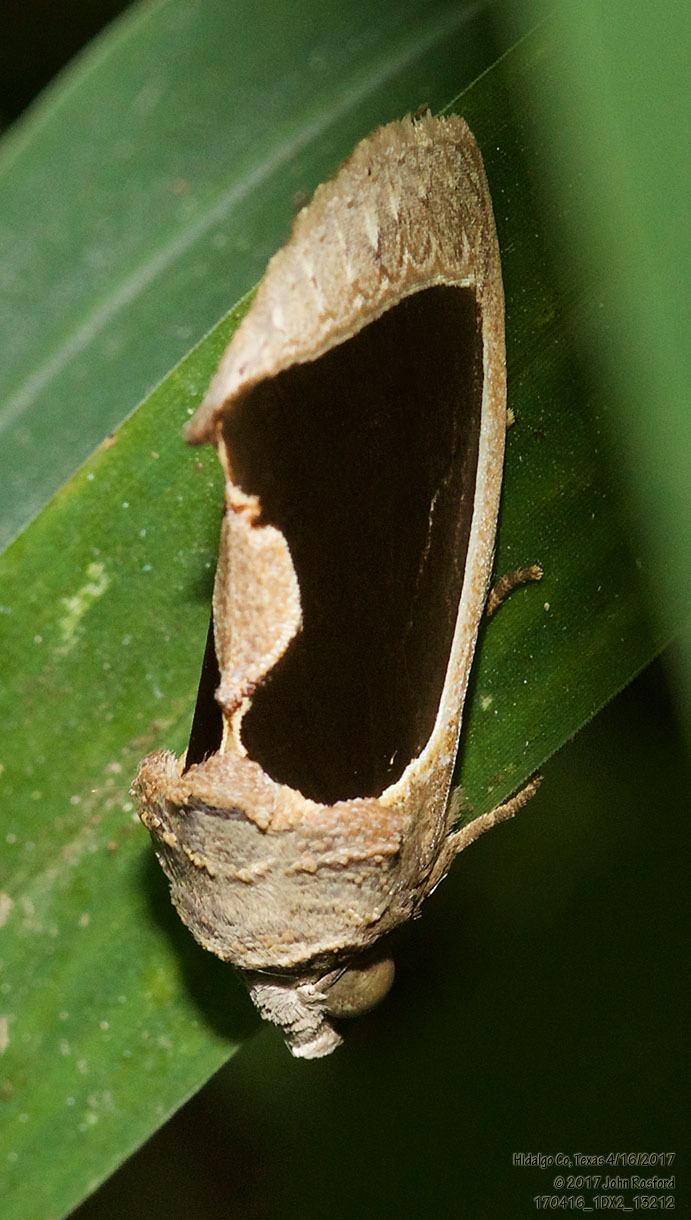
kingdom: Animalia
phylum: Arthropoda
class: Insecta
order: Lepidoptera
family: Erebidae
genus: Gonodonta
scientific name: Gonodonta sinaldus
